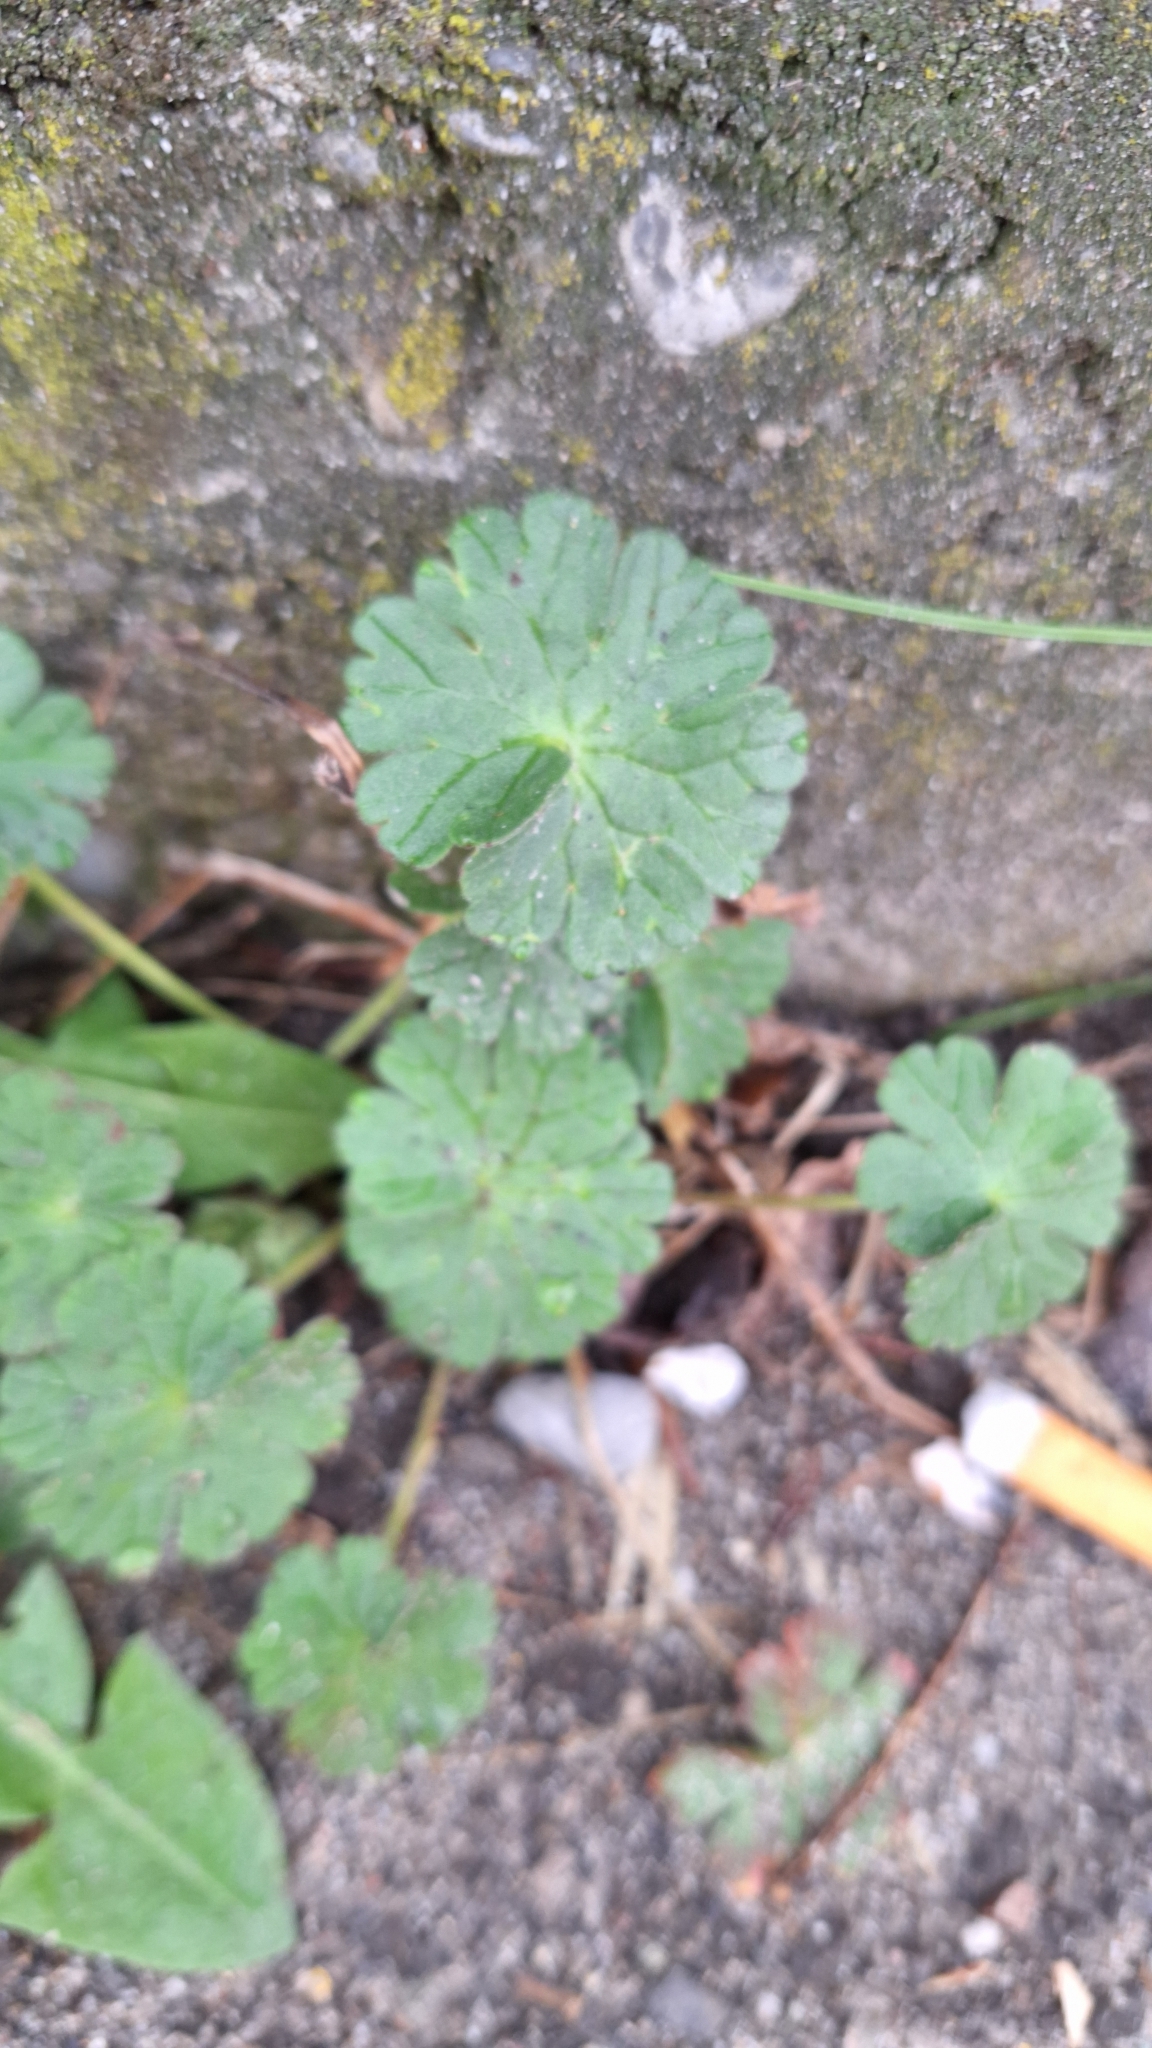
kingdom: Plantae
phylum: Tracheophyta
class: Magnoliopsida
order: Geraniales
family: Geraniaceae
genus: Geranium
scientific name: Geranium pyrenaicum
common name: Hedgerow crane's-bill
